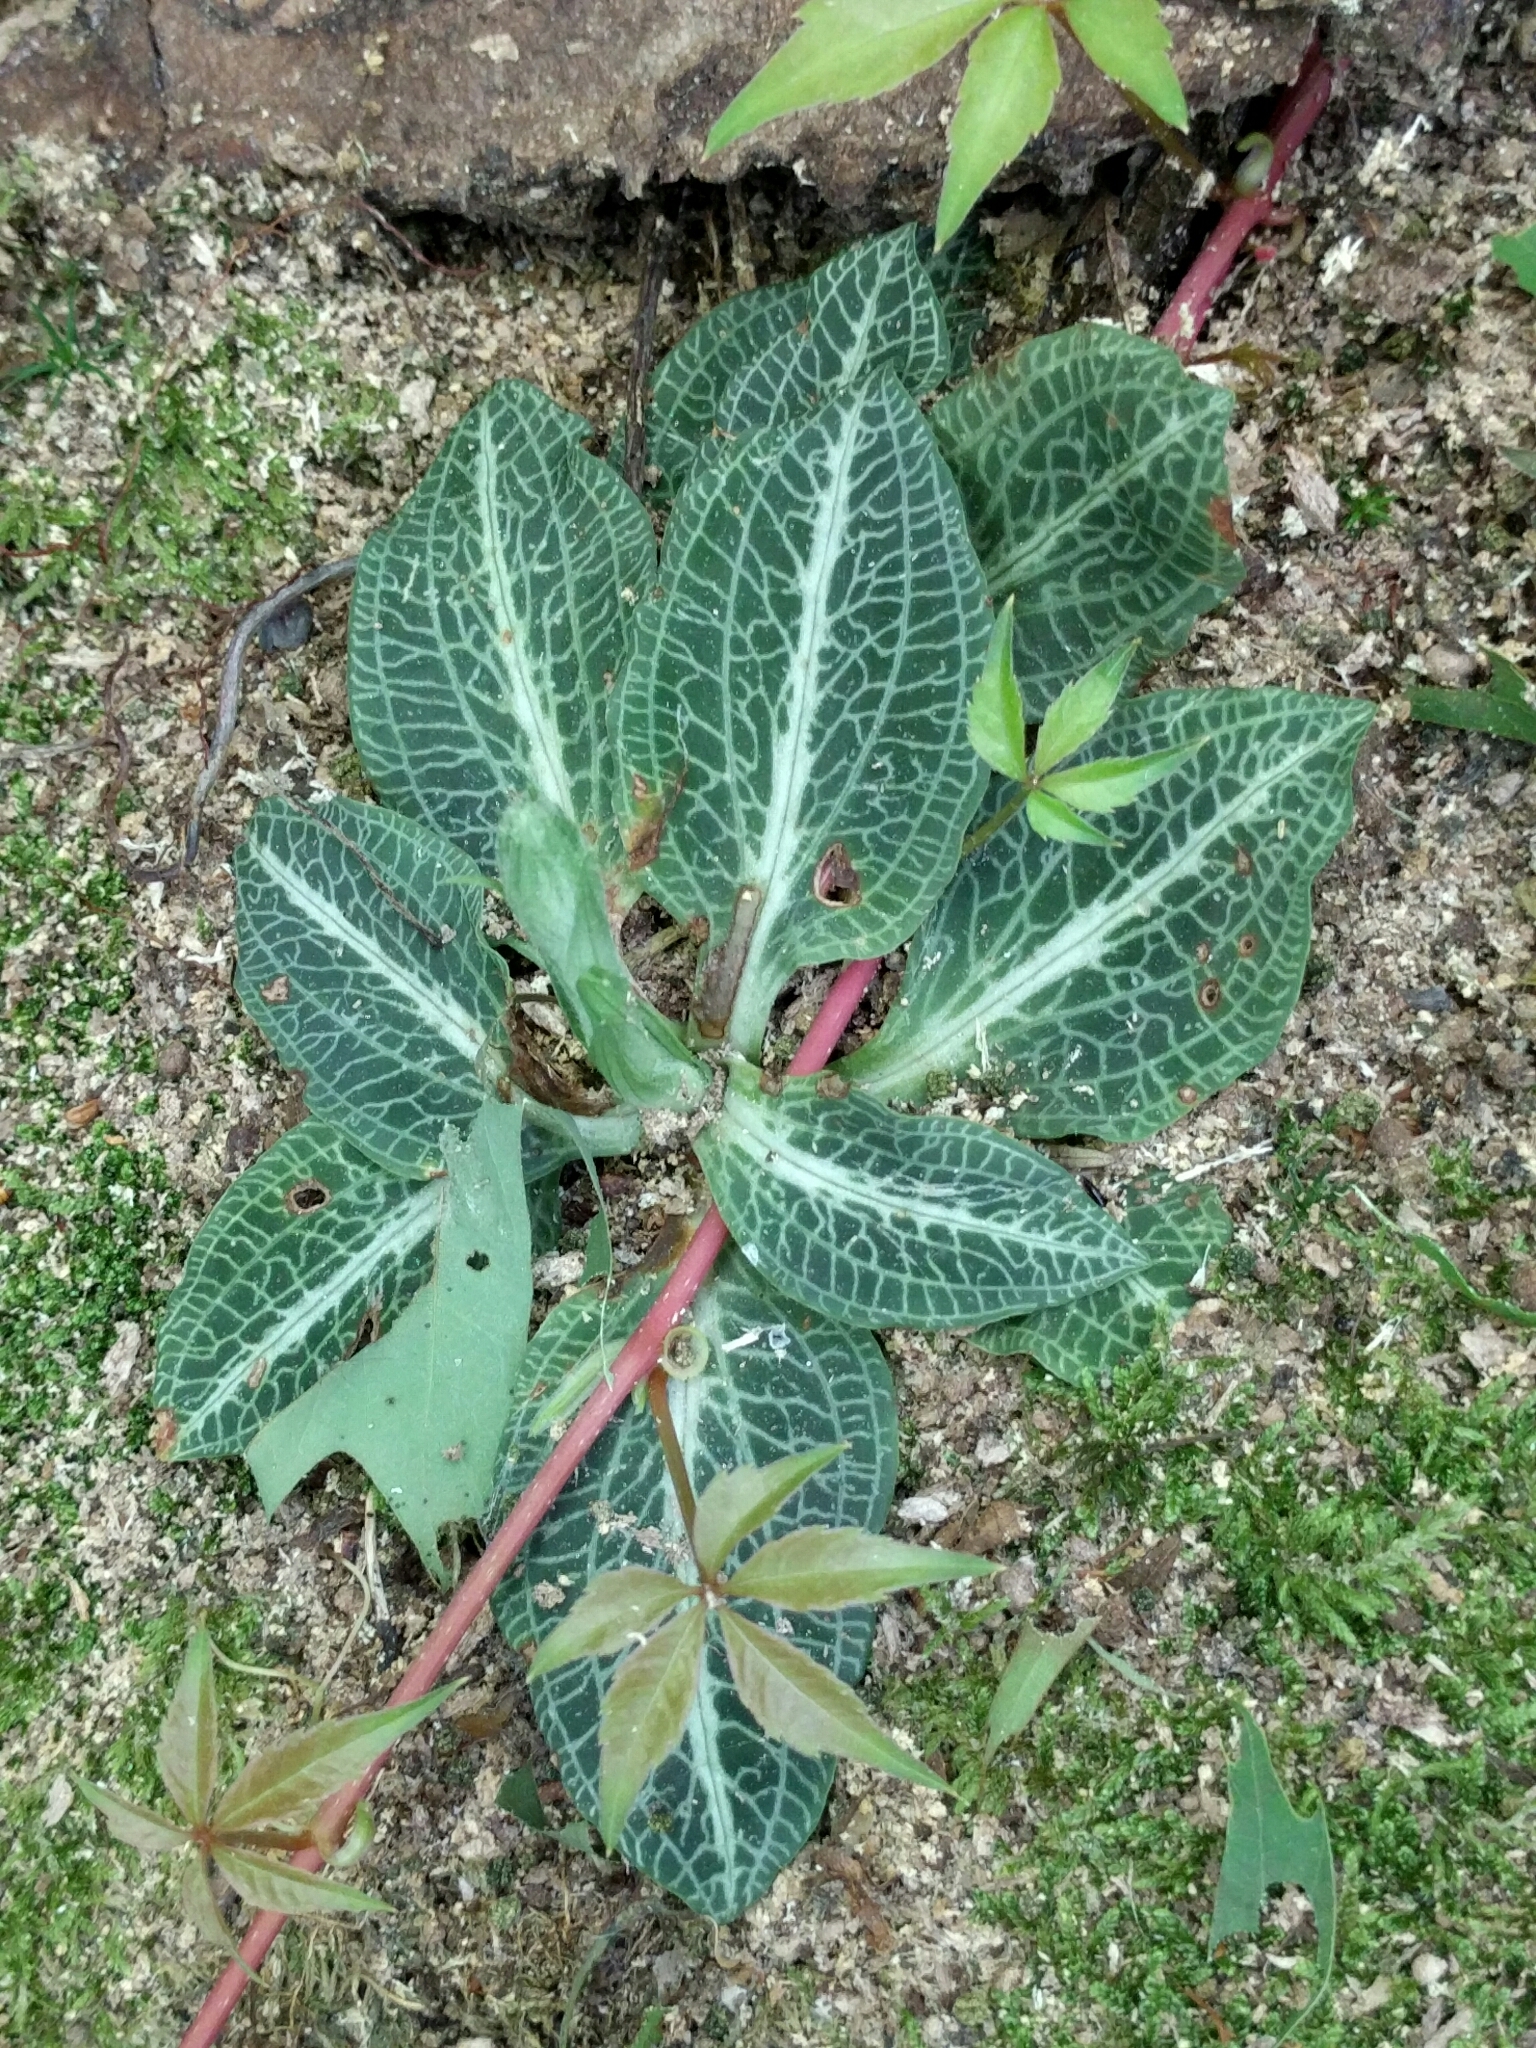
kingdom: Plantae
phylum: Tracheophyta
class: Liliopsida
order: Asparagales
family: Orchidaceae
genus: Goodyera
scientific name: Goodyera pubescens
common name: Downy rattlesnake-plantain
